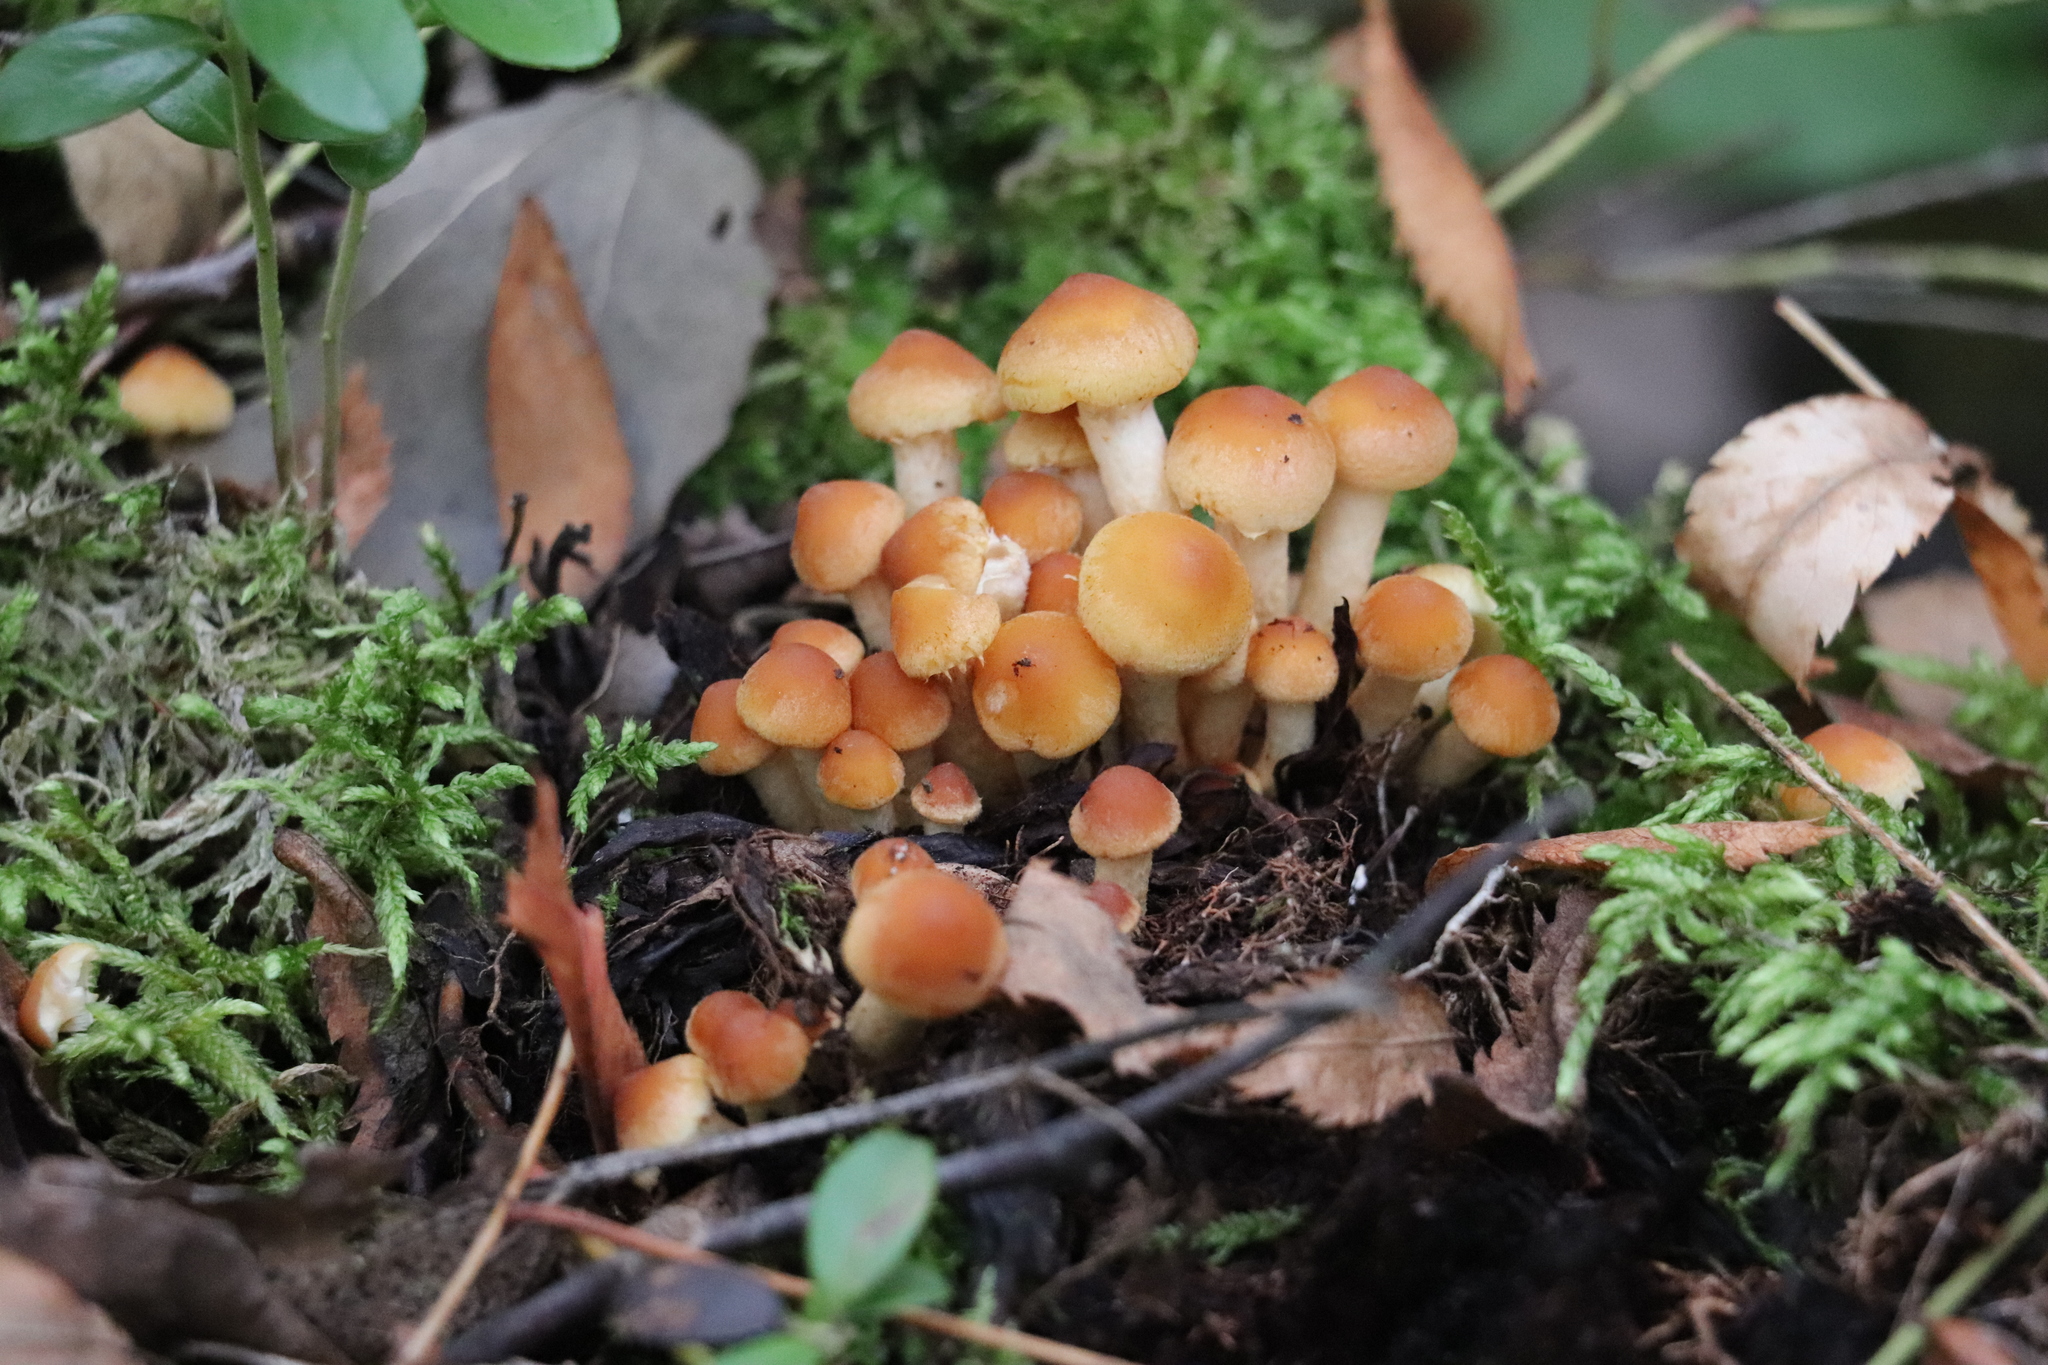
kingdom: Fungi
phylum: Basidiomycota
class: Agaricomycetes
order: Agaricales
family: Strophariaceae
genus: Hypholoma
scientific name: Hypholoma capnoides
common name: Conifer tuft
